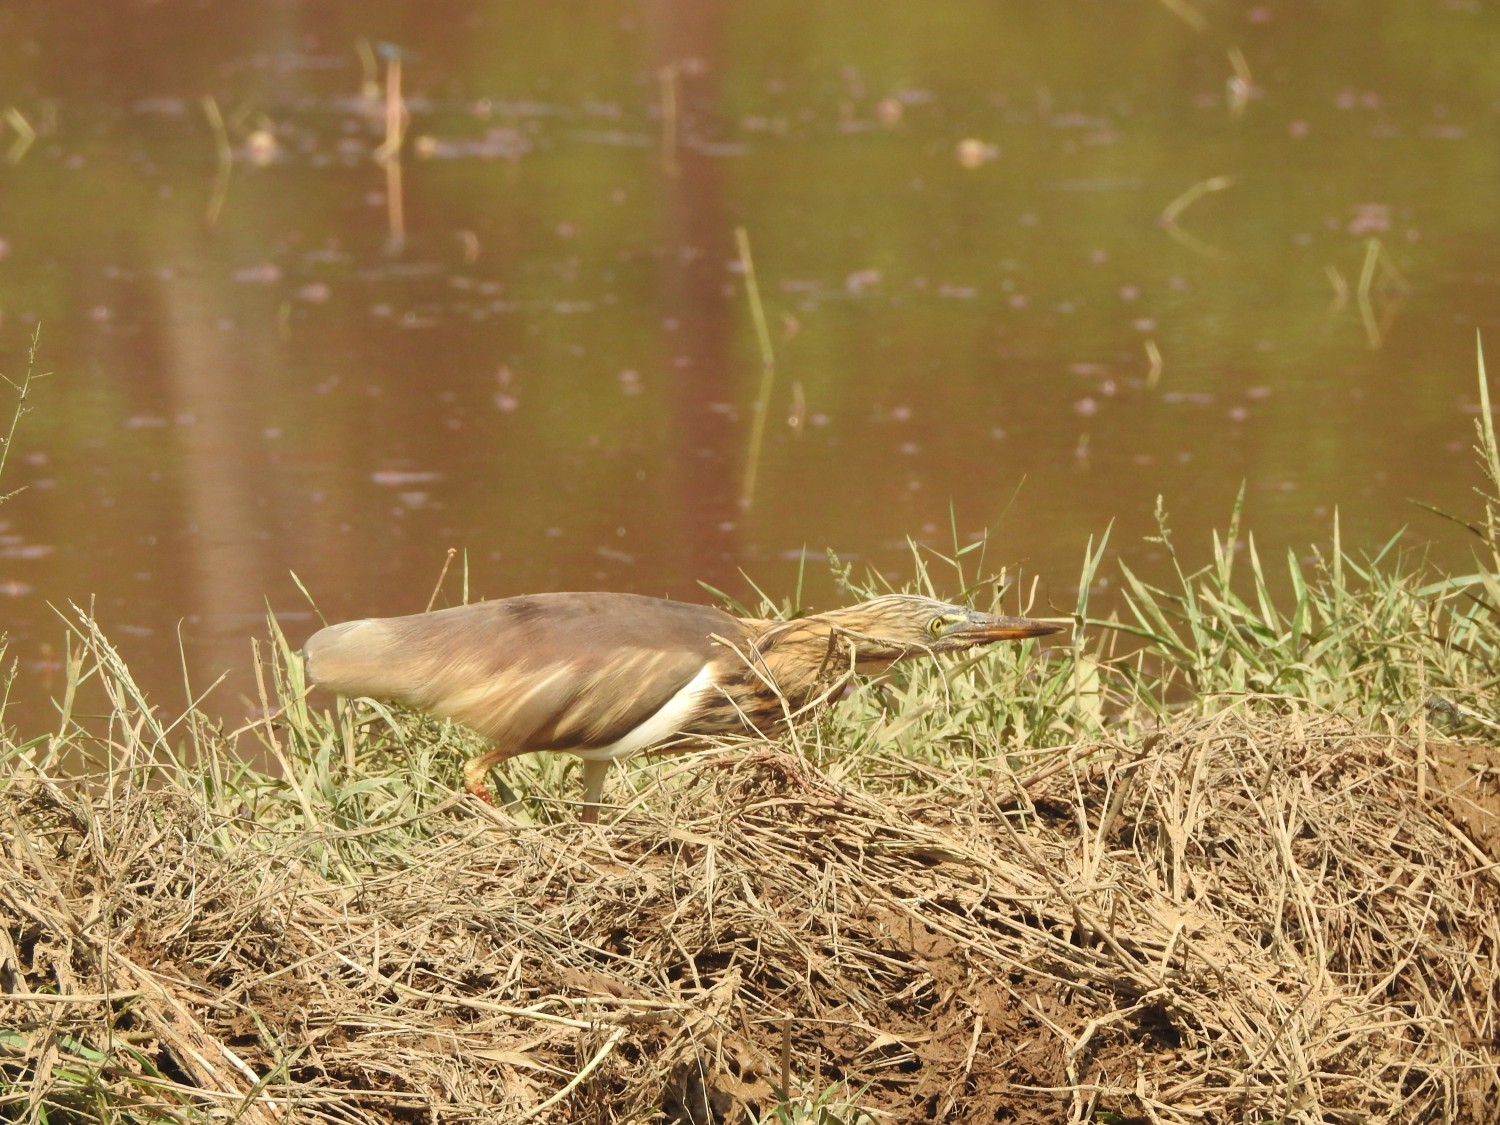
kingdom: Animalia
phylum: Chordata
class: Aves
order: Pelecaniformes
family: Ardeidae
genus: Ardeola
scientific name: Ardeola grayii
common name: Indian pond heron
